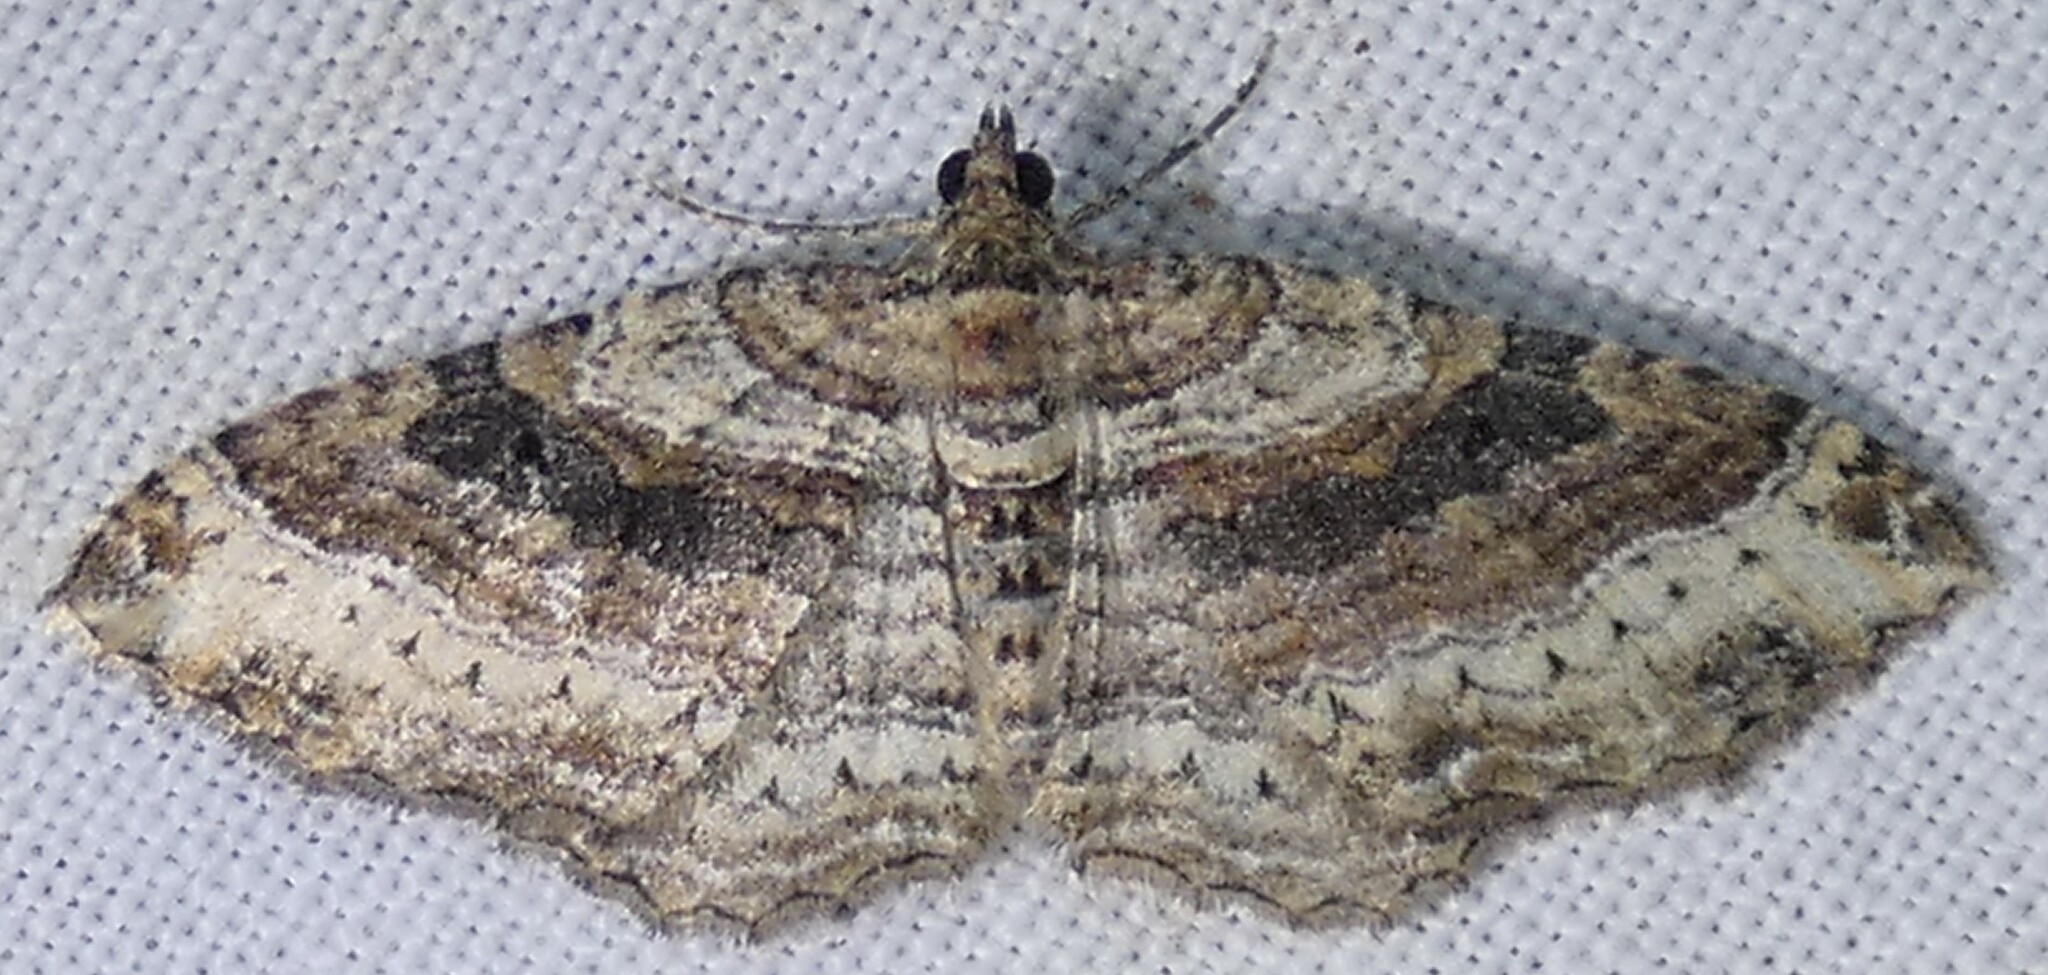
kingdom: Animalia
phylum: Arthropoda
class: Insecta
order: Lepidoptera
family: Geometridae
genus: Costaconvexa
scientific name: Costaconvexa centrostrigaria
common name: Bent-line carpet
